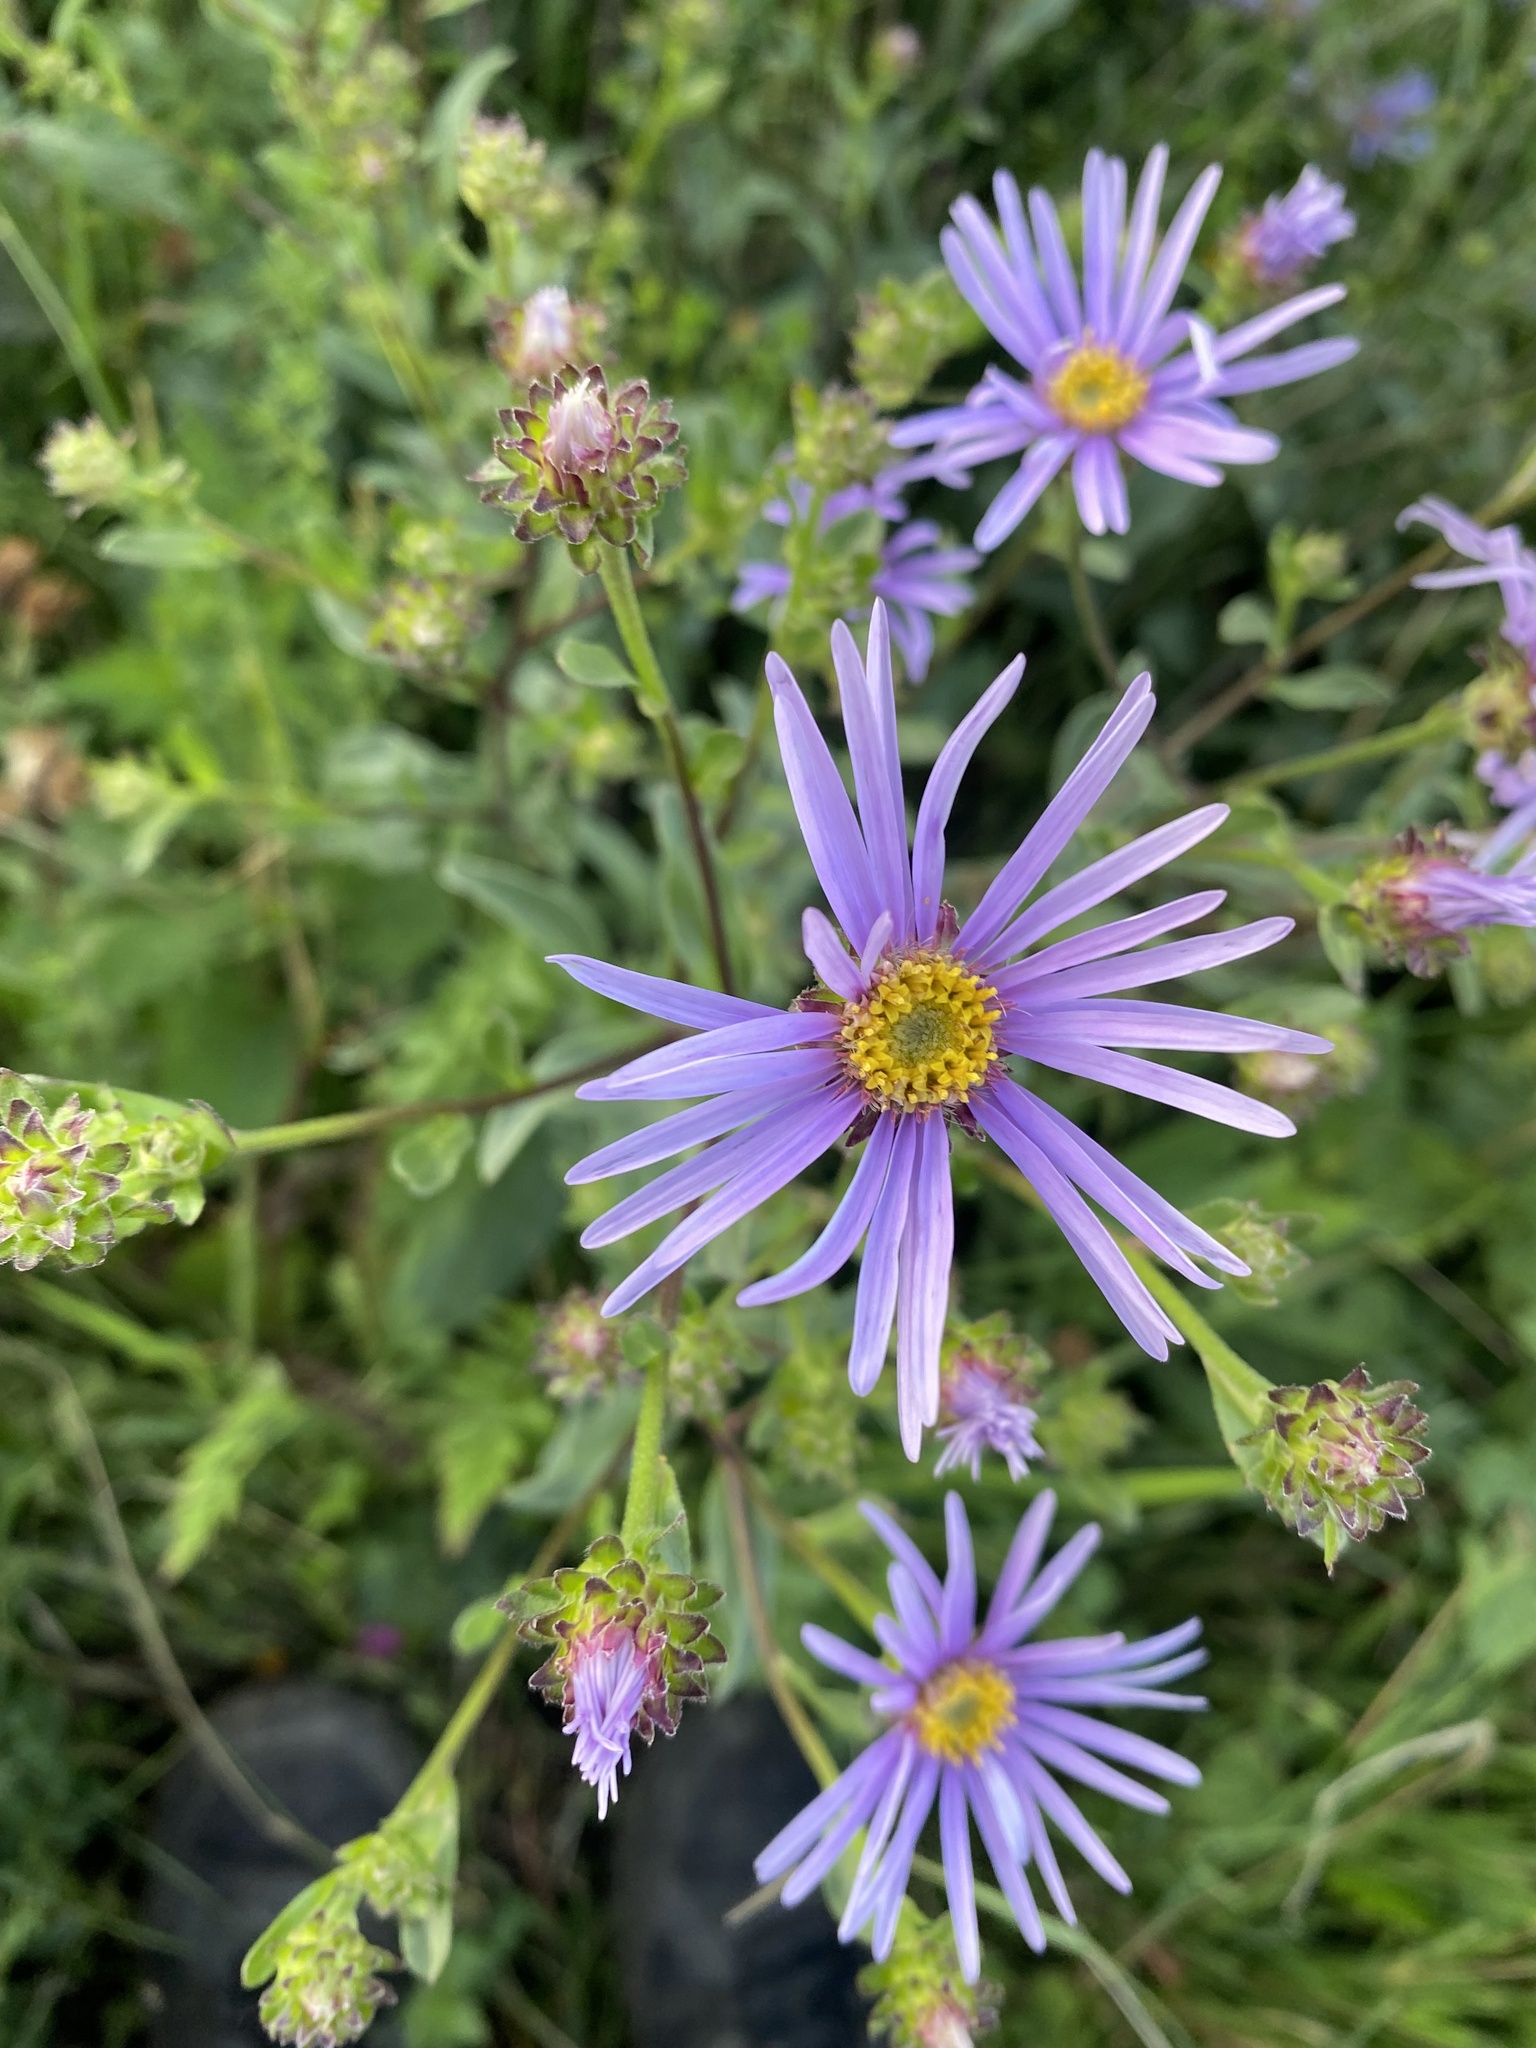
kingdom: Plantae
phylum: Tracheophyta
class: Magnoliopsida
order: Asterales
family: Asteraceae
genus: Aster
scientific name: Aster amellus
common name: European michaelmas daisy
